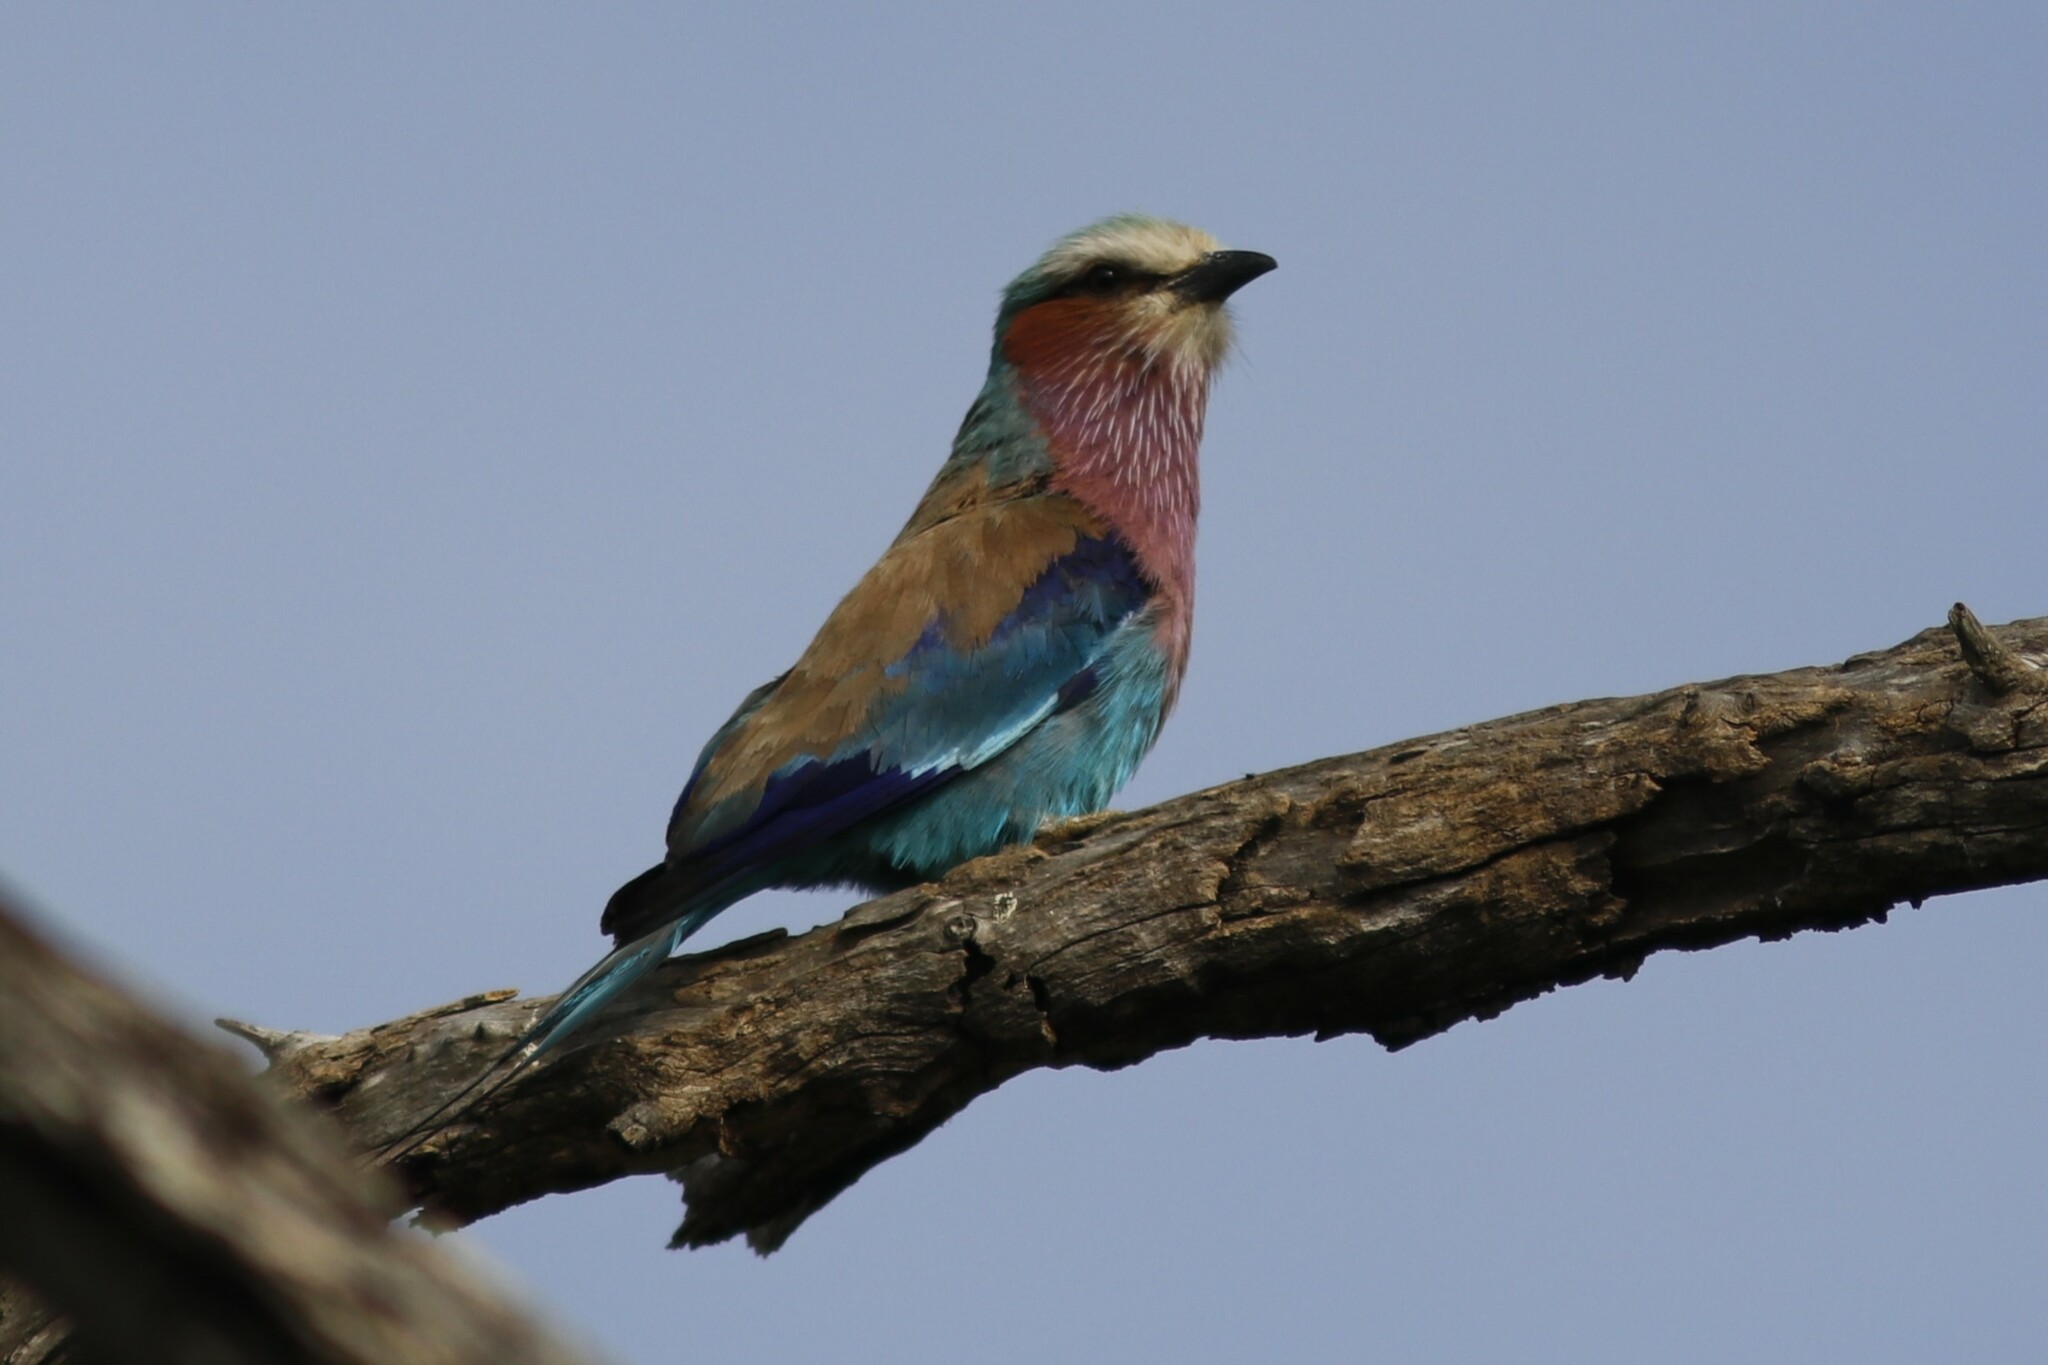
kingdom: Animalia
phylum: Chordata
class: Aves
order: Coraciiformes
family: Coraciidae
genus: Coracias
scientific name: Coracias caudatus
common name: Lilac-breasted roller
